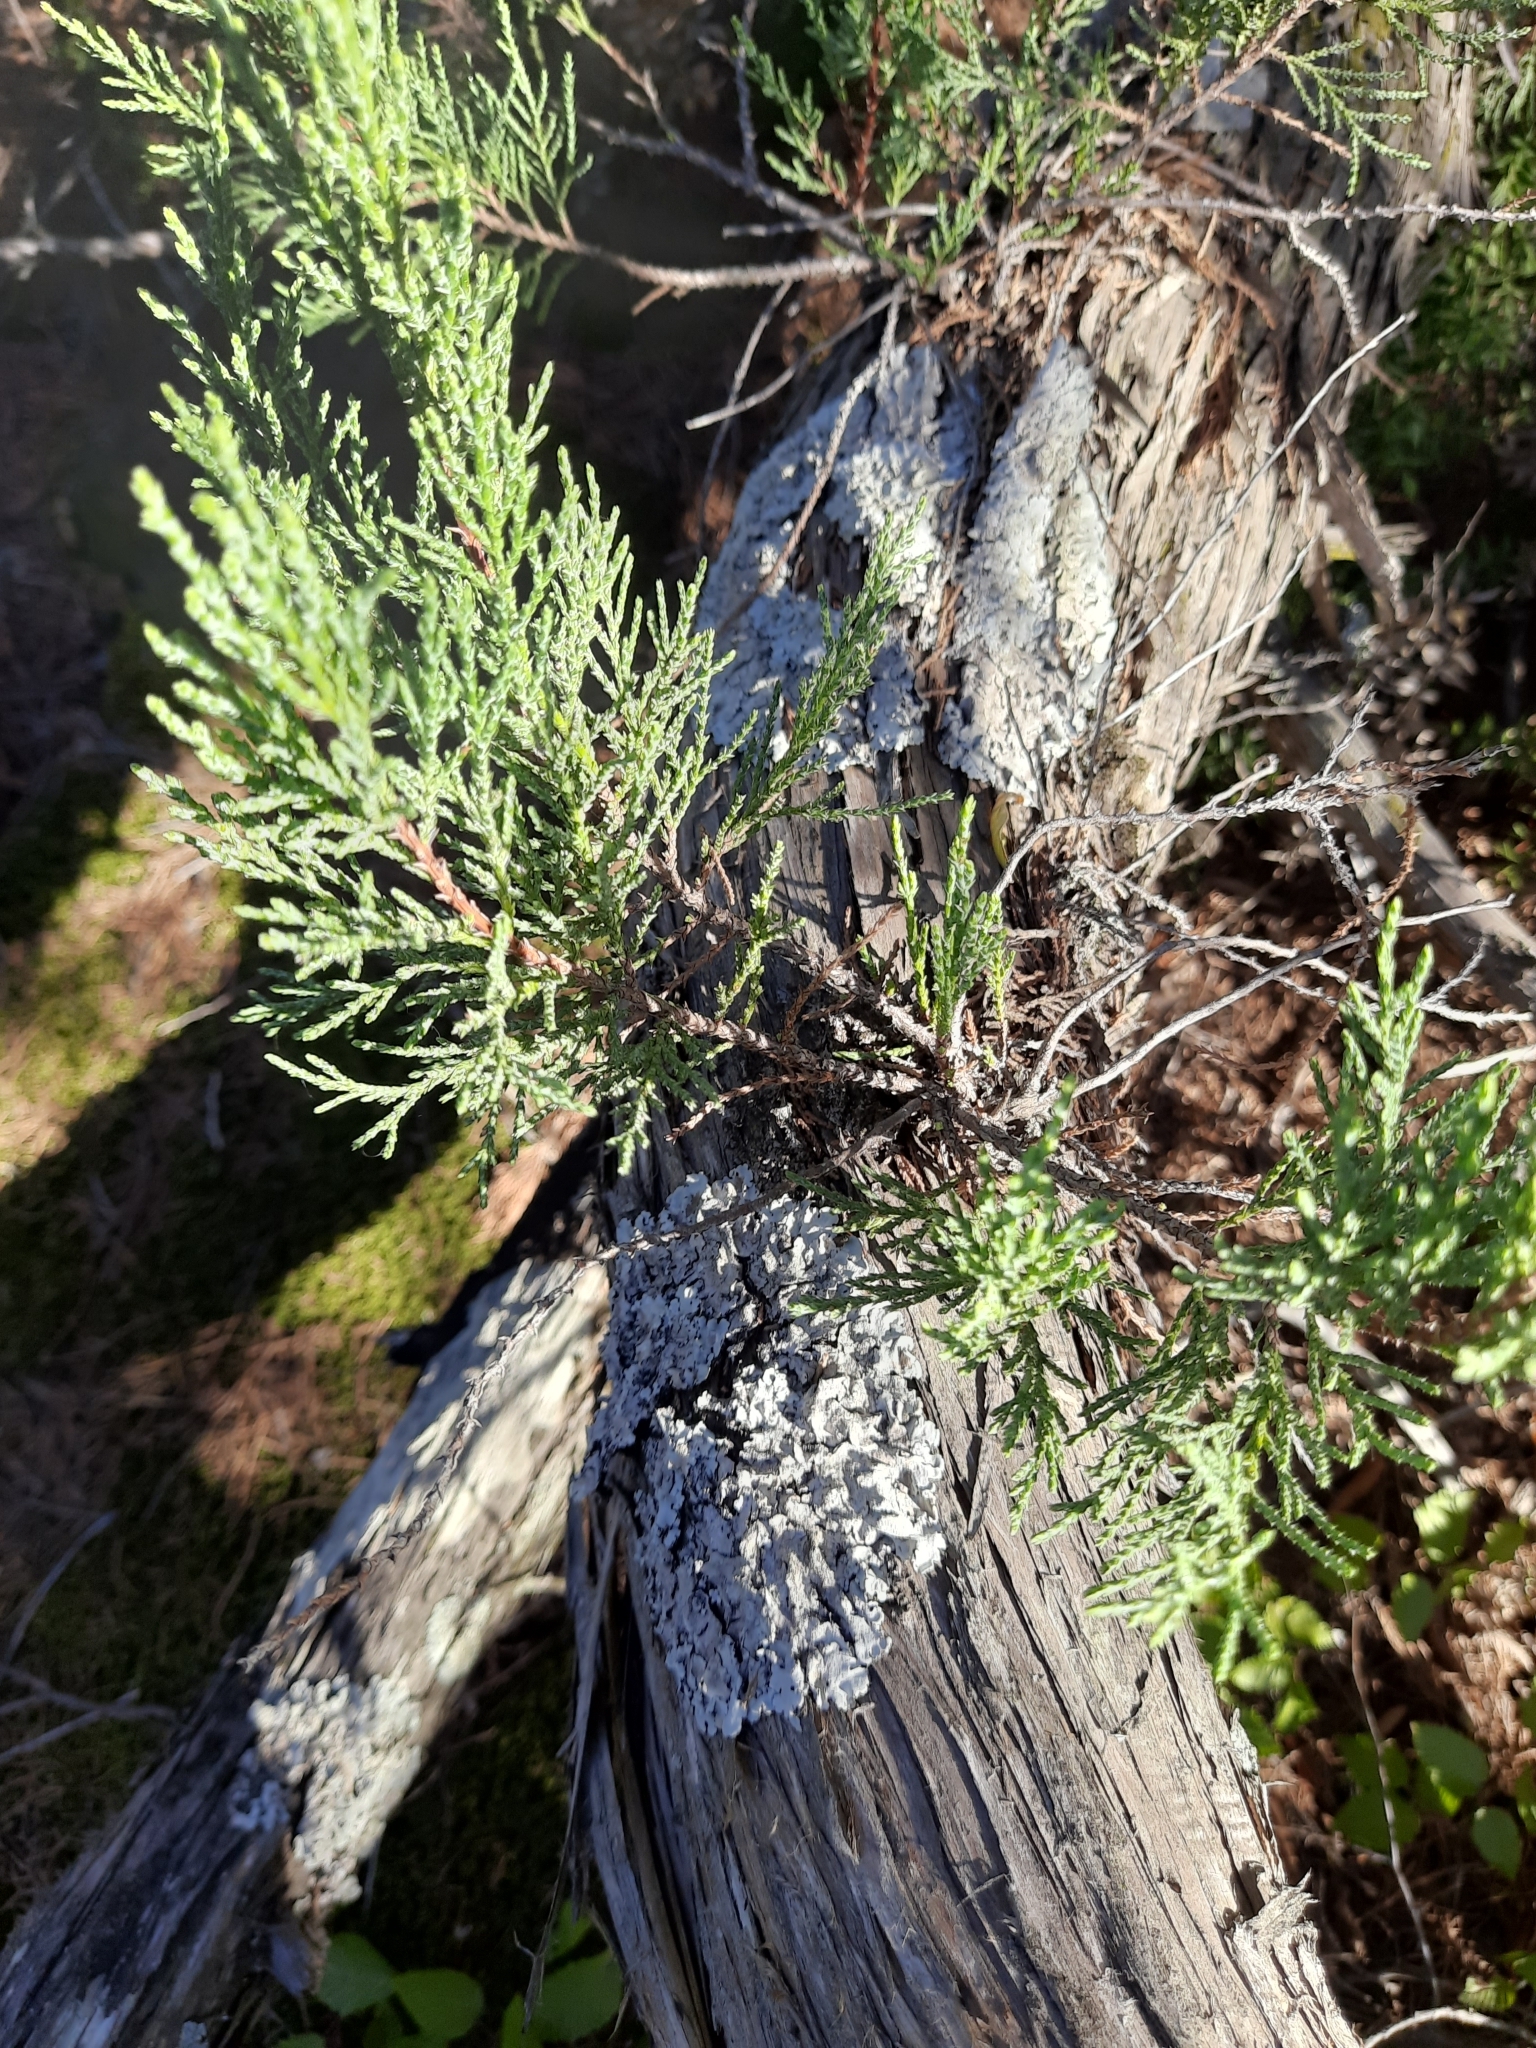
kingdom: Plantae
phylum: Tracheophyta
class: Pinopsida
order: Pinales
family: Cupressaceae
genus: Juniperus
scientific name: Juniperus excelsa
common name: Crimean juniper
